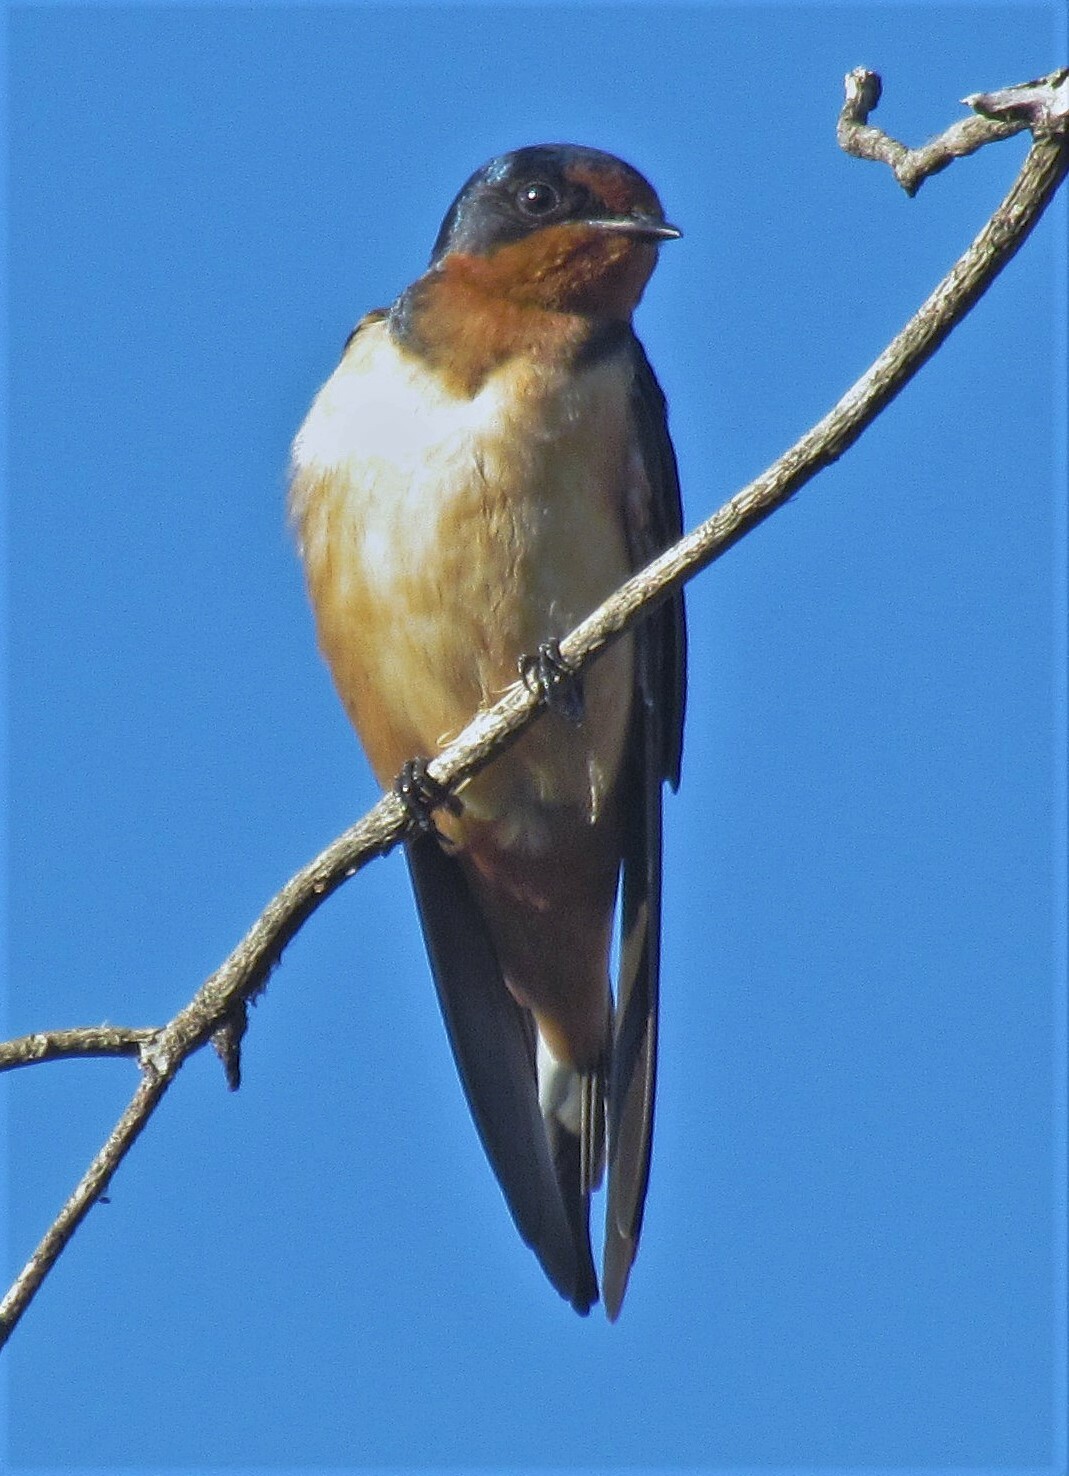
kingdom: Animalia
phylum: Chordata
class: Aves
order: Passeriformes
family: Hirundinidae
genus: Hirundo
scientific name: Hirundo rustica
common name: Barn swallow
